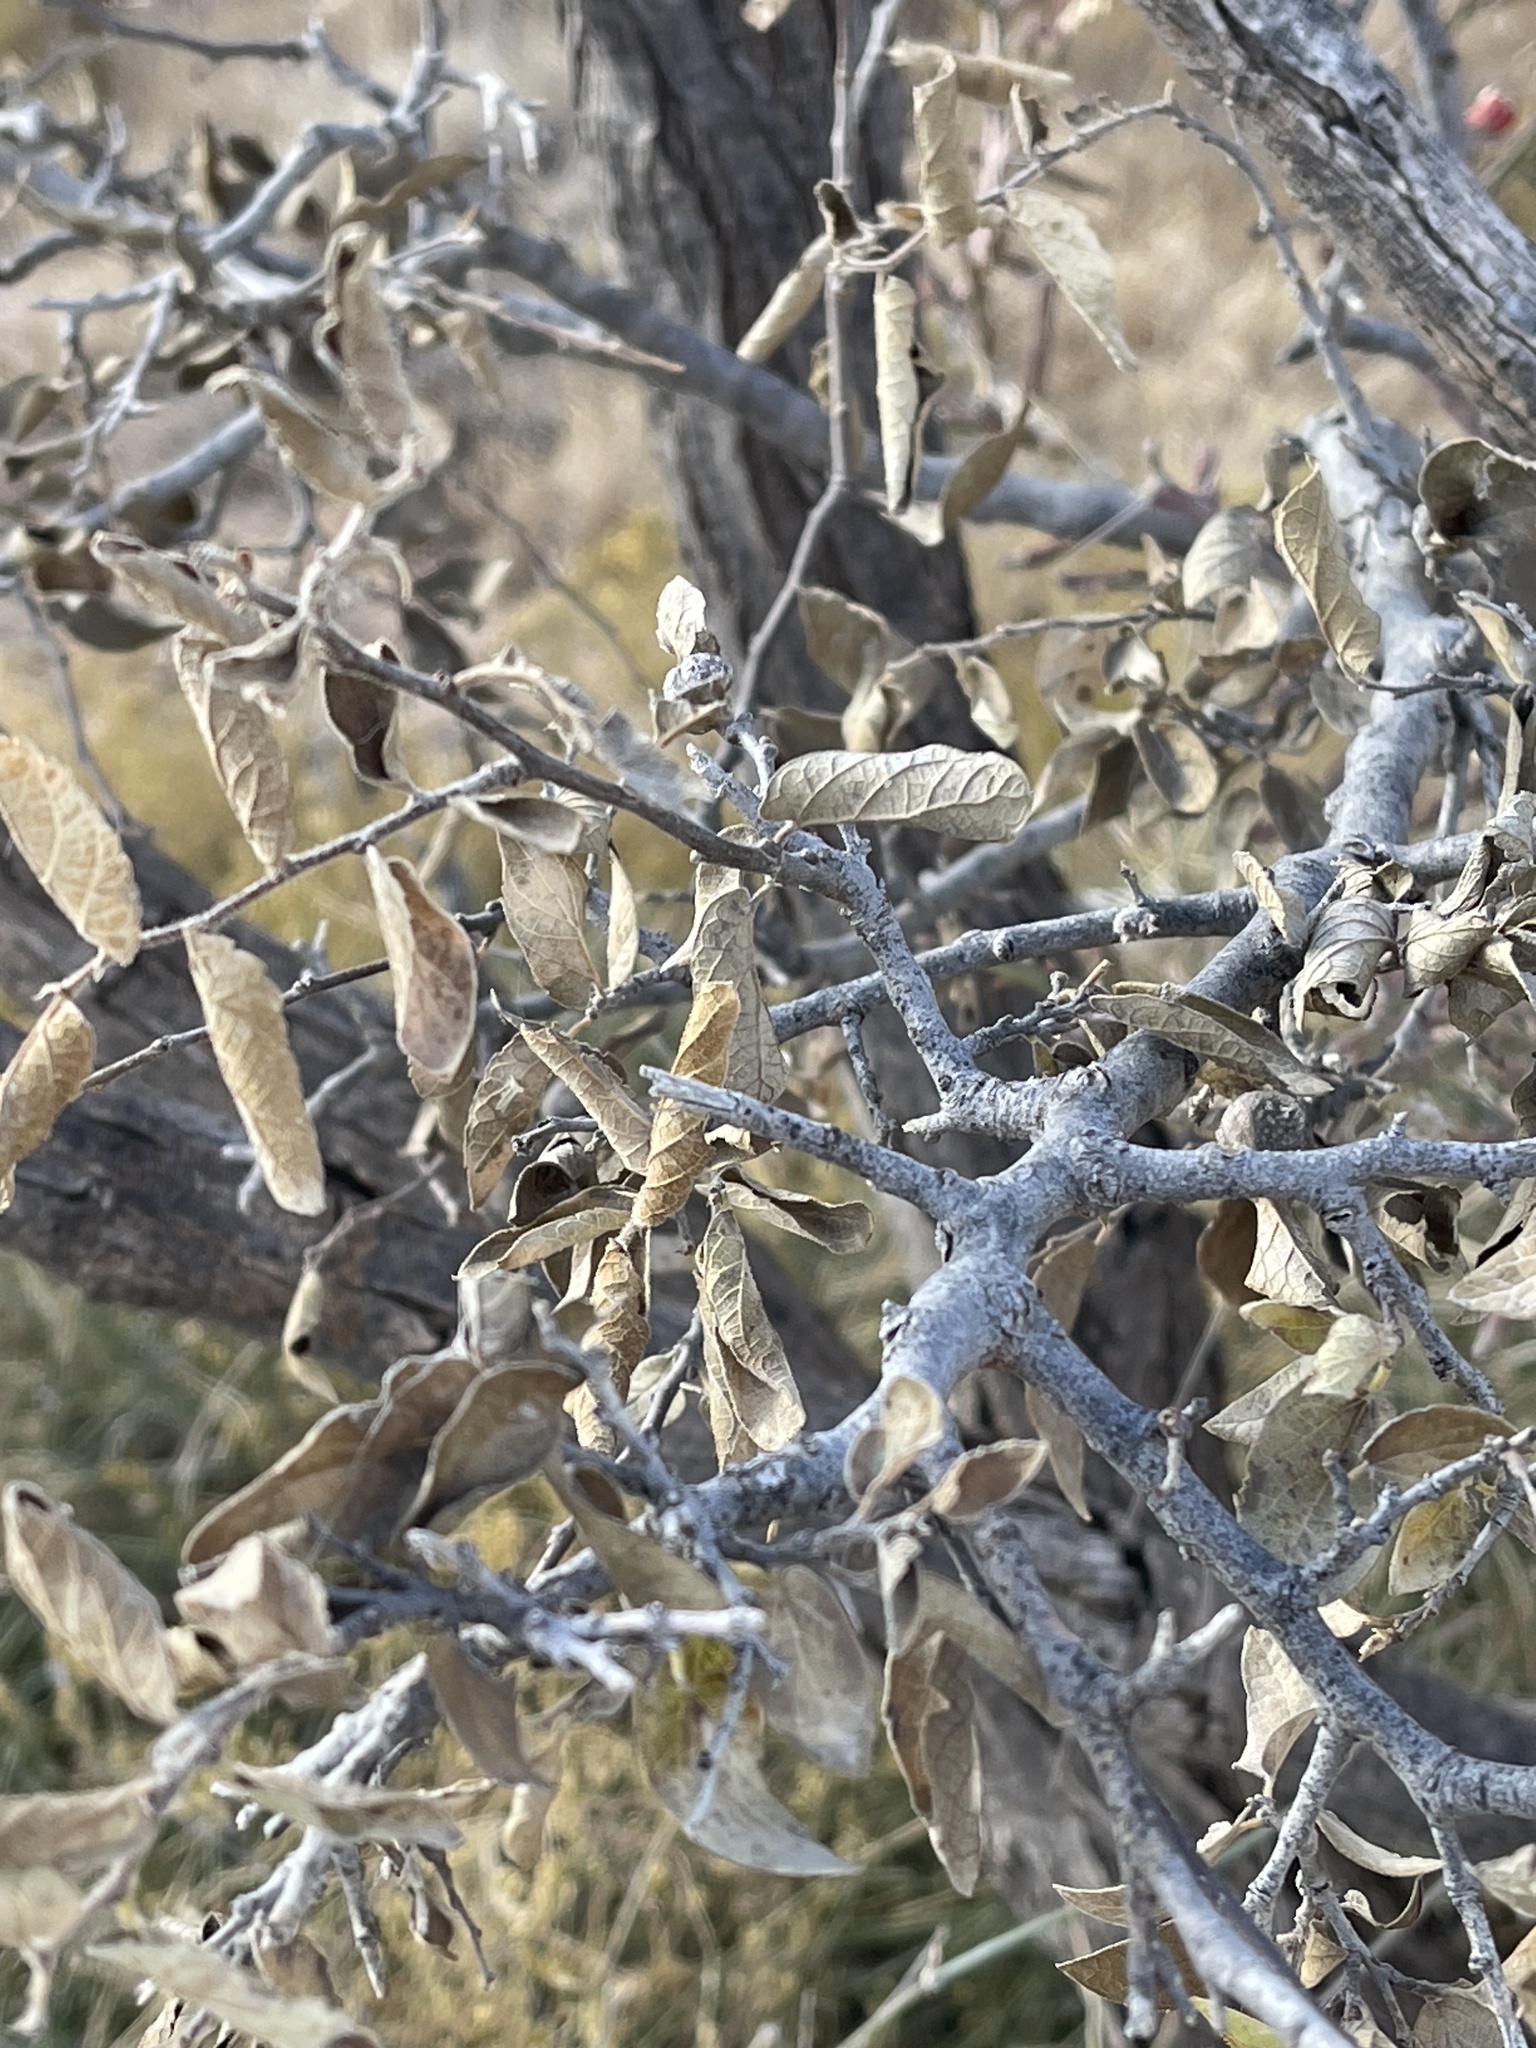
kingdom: Plantae
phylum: Tracheophyta
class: Magnoliopsida
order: Rosales
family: Cannabaceae
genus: Celtis
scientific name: Celtis reticulata
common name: Netleaf hackberry
